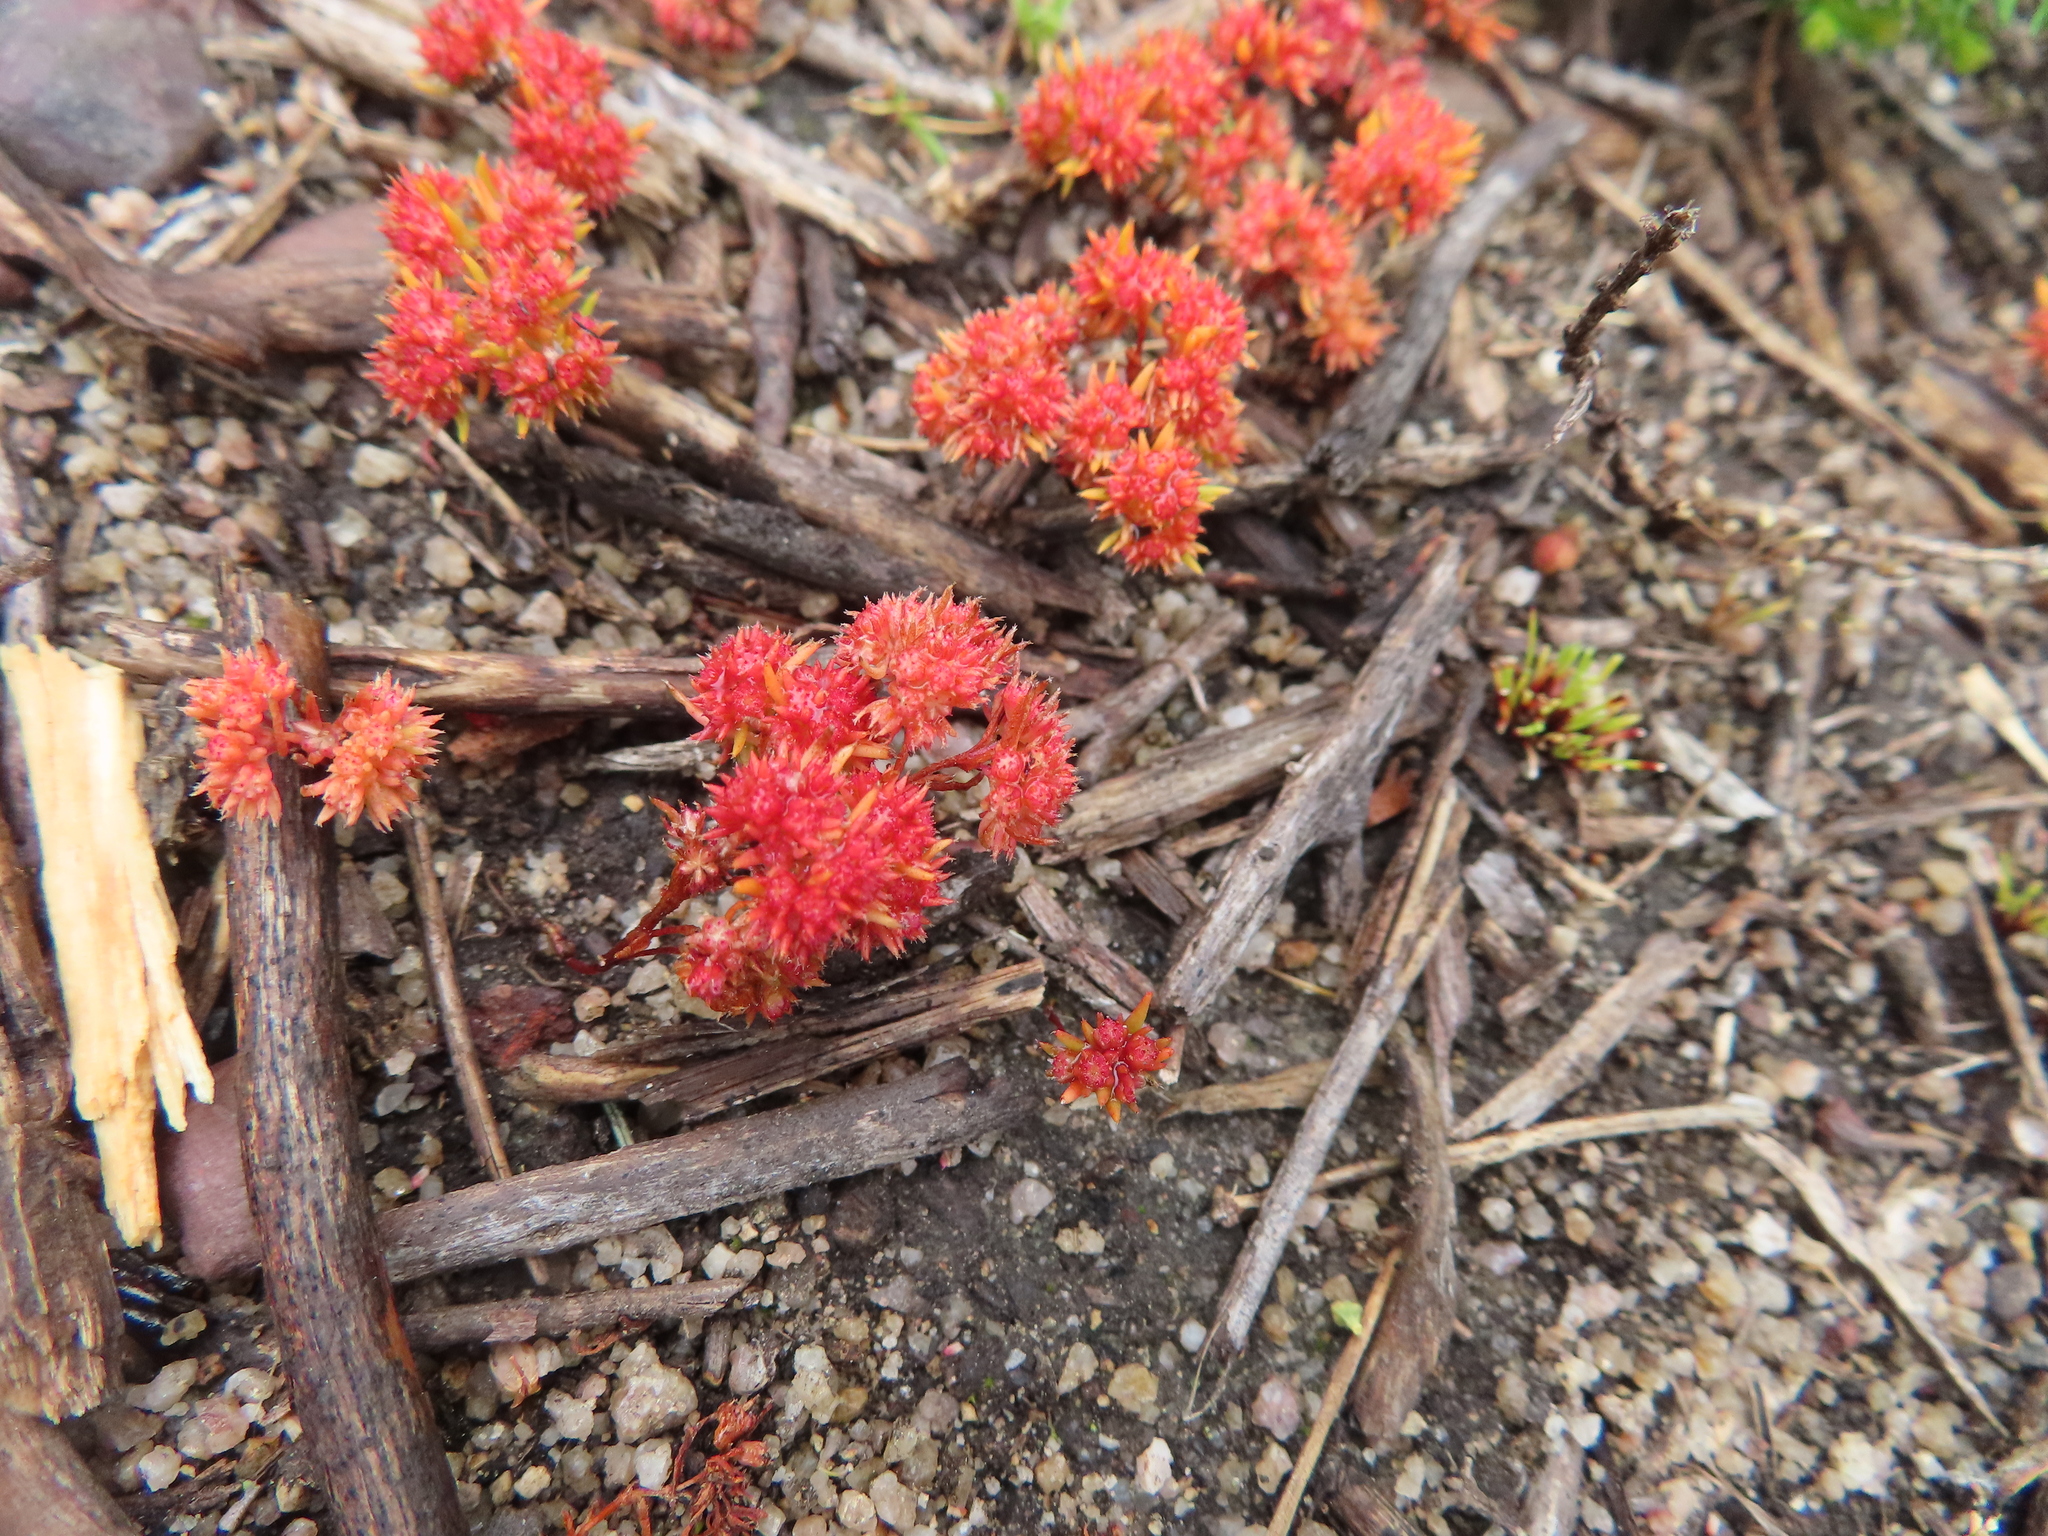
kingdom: Plantae
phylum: Tracheophyta
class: Magnoliopsida
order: Saxifragales
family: Crassulaceae
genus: Crassula
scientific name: Crassula glomerata
